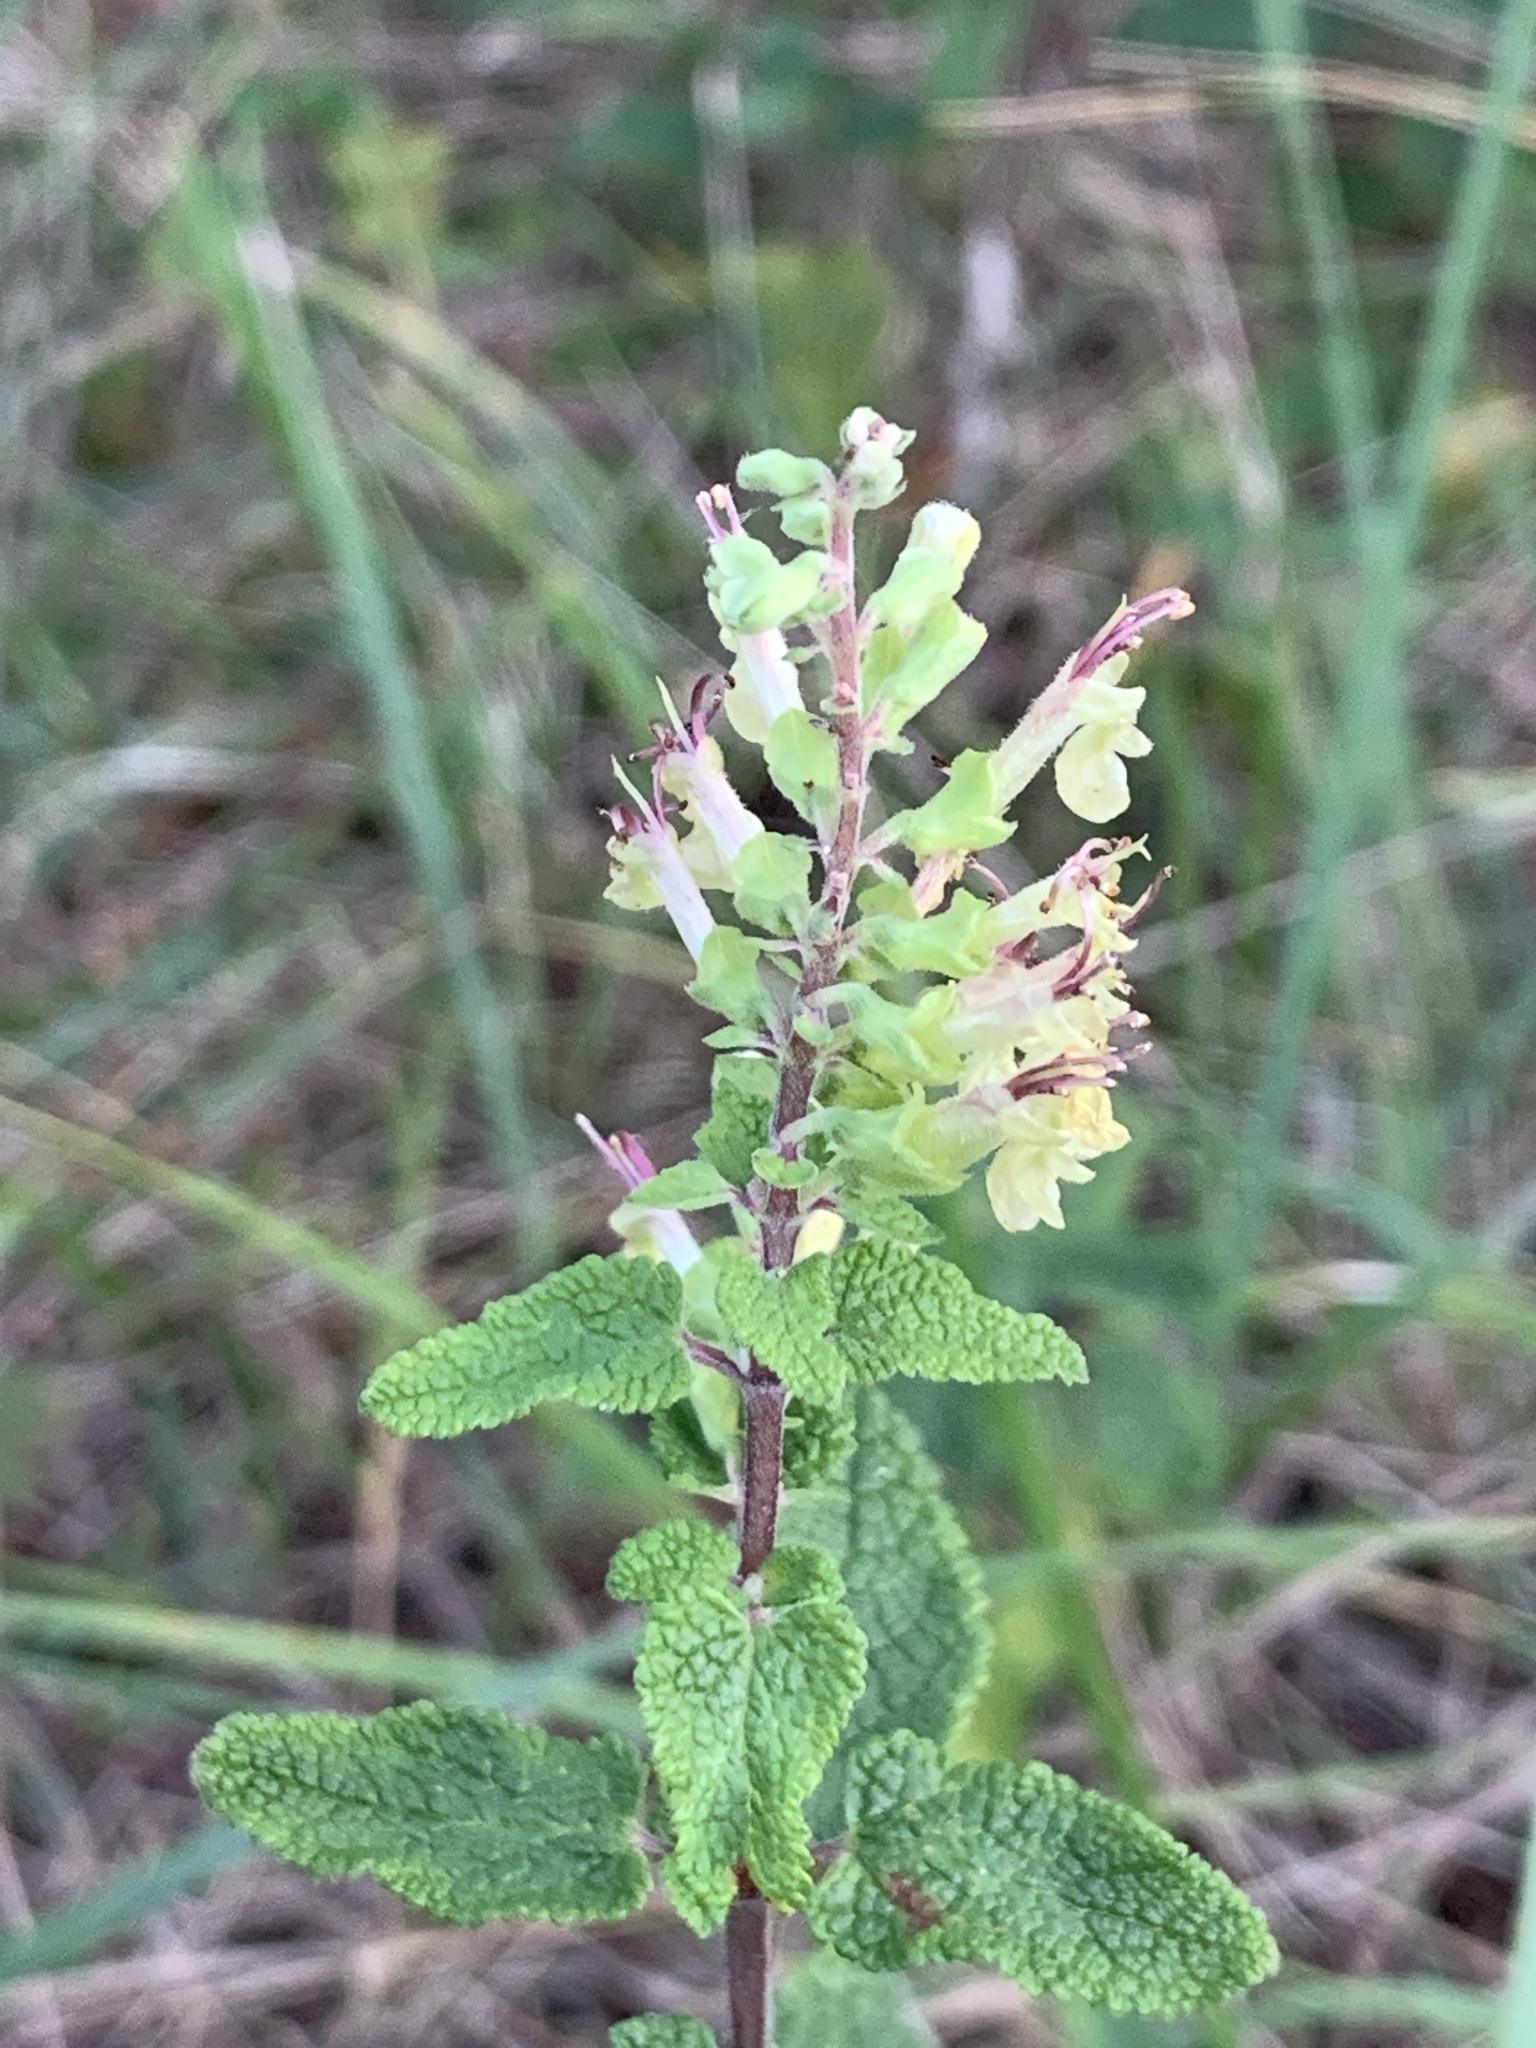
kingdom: Plantae
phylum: Tracheophyta
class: Magnoliopsida
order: Lamiales
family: Lamiaceae
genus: Teucrium
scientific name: Teucrium scorodonia
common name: Woodland germander
